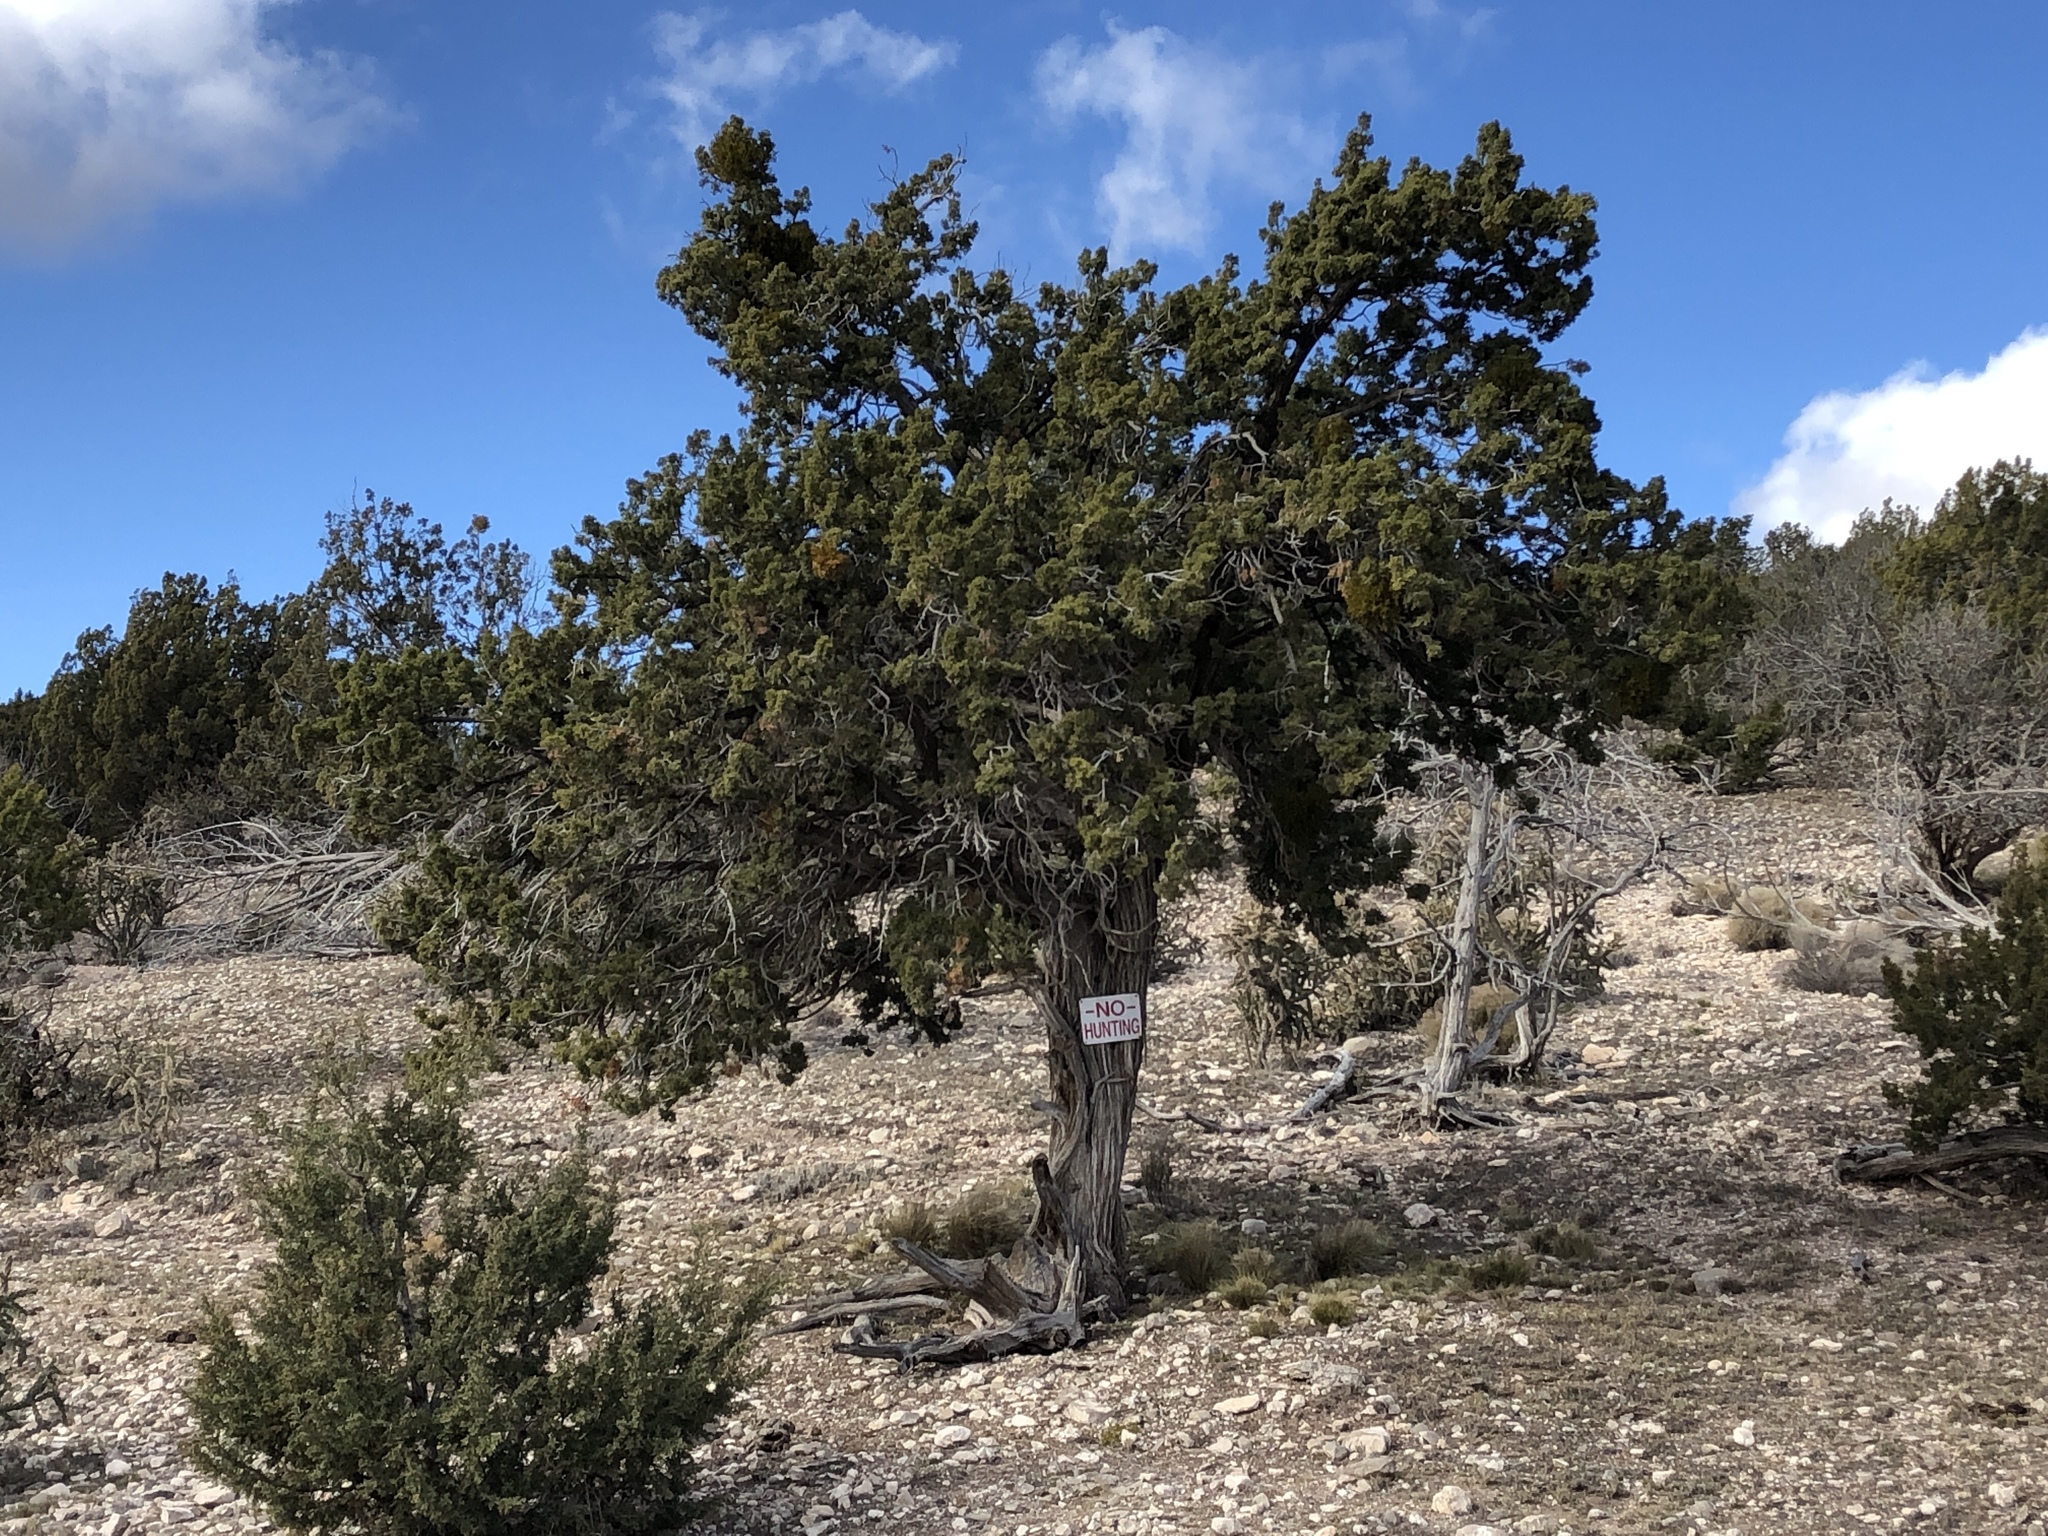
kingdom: Plantae
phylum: Tracheophyta
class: Pinopsida
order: Pinales
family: Cupressaceae
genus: Juniperus
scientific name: Juniperus monosperma
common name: One-seed juniper
